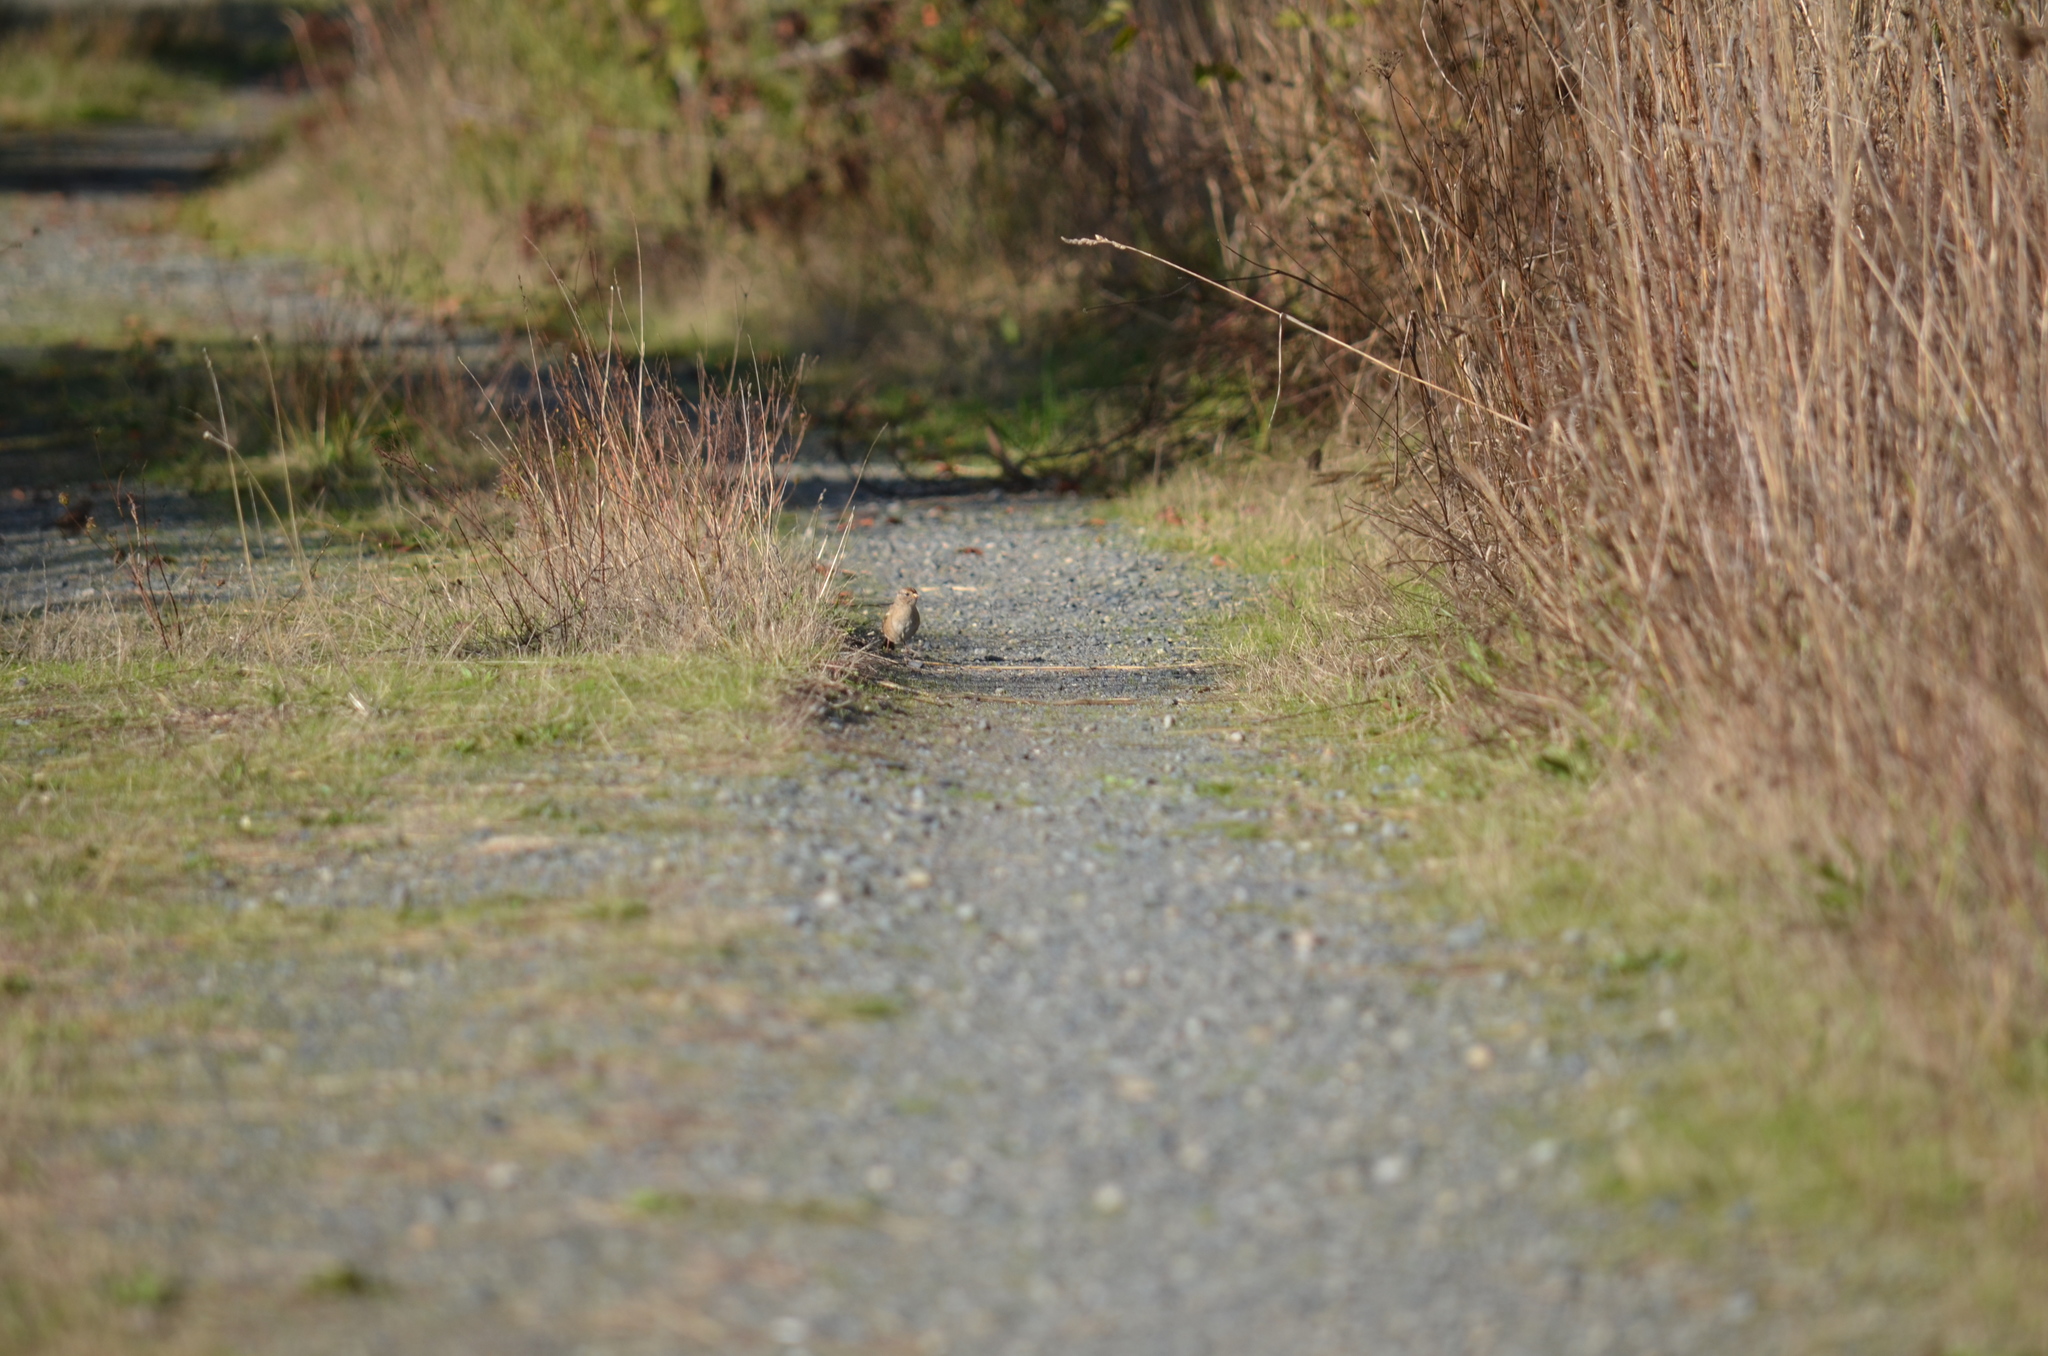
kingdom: Animalia
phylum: Chordata
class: Aves
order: Passeriformes
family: Passerellidae
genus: Zonotrichia
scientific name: Zonotrichia leucophrys
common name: White-crowned sparrow
